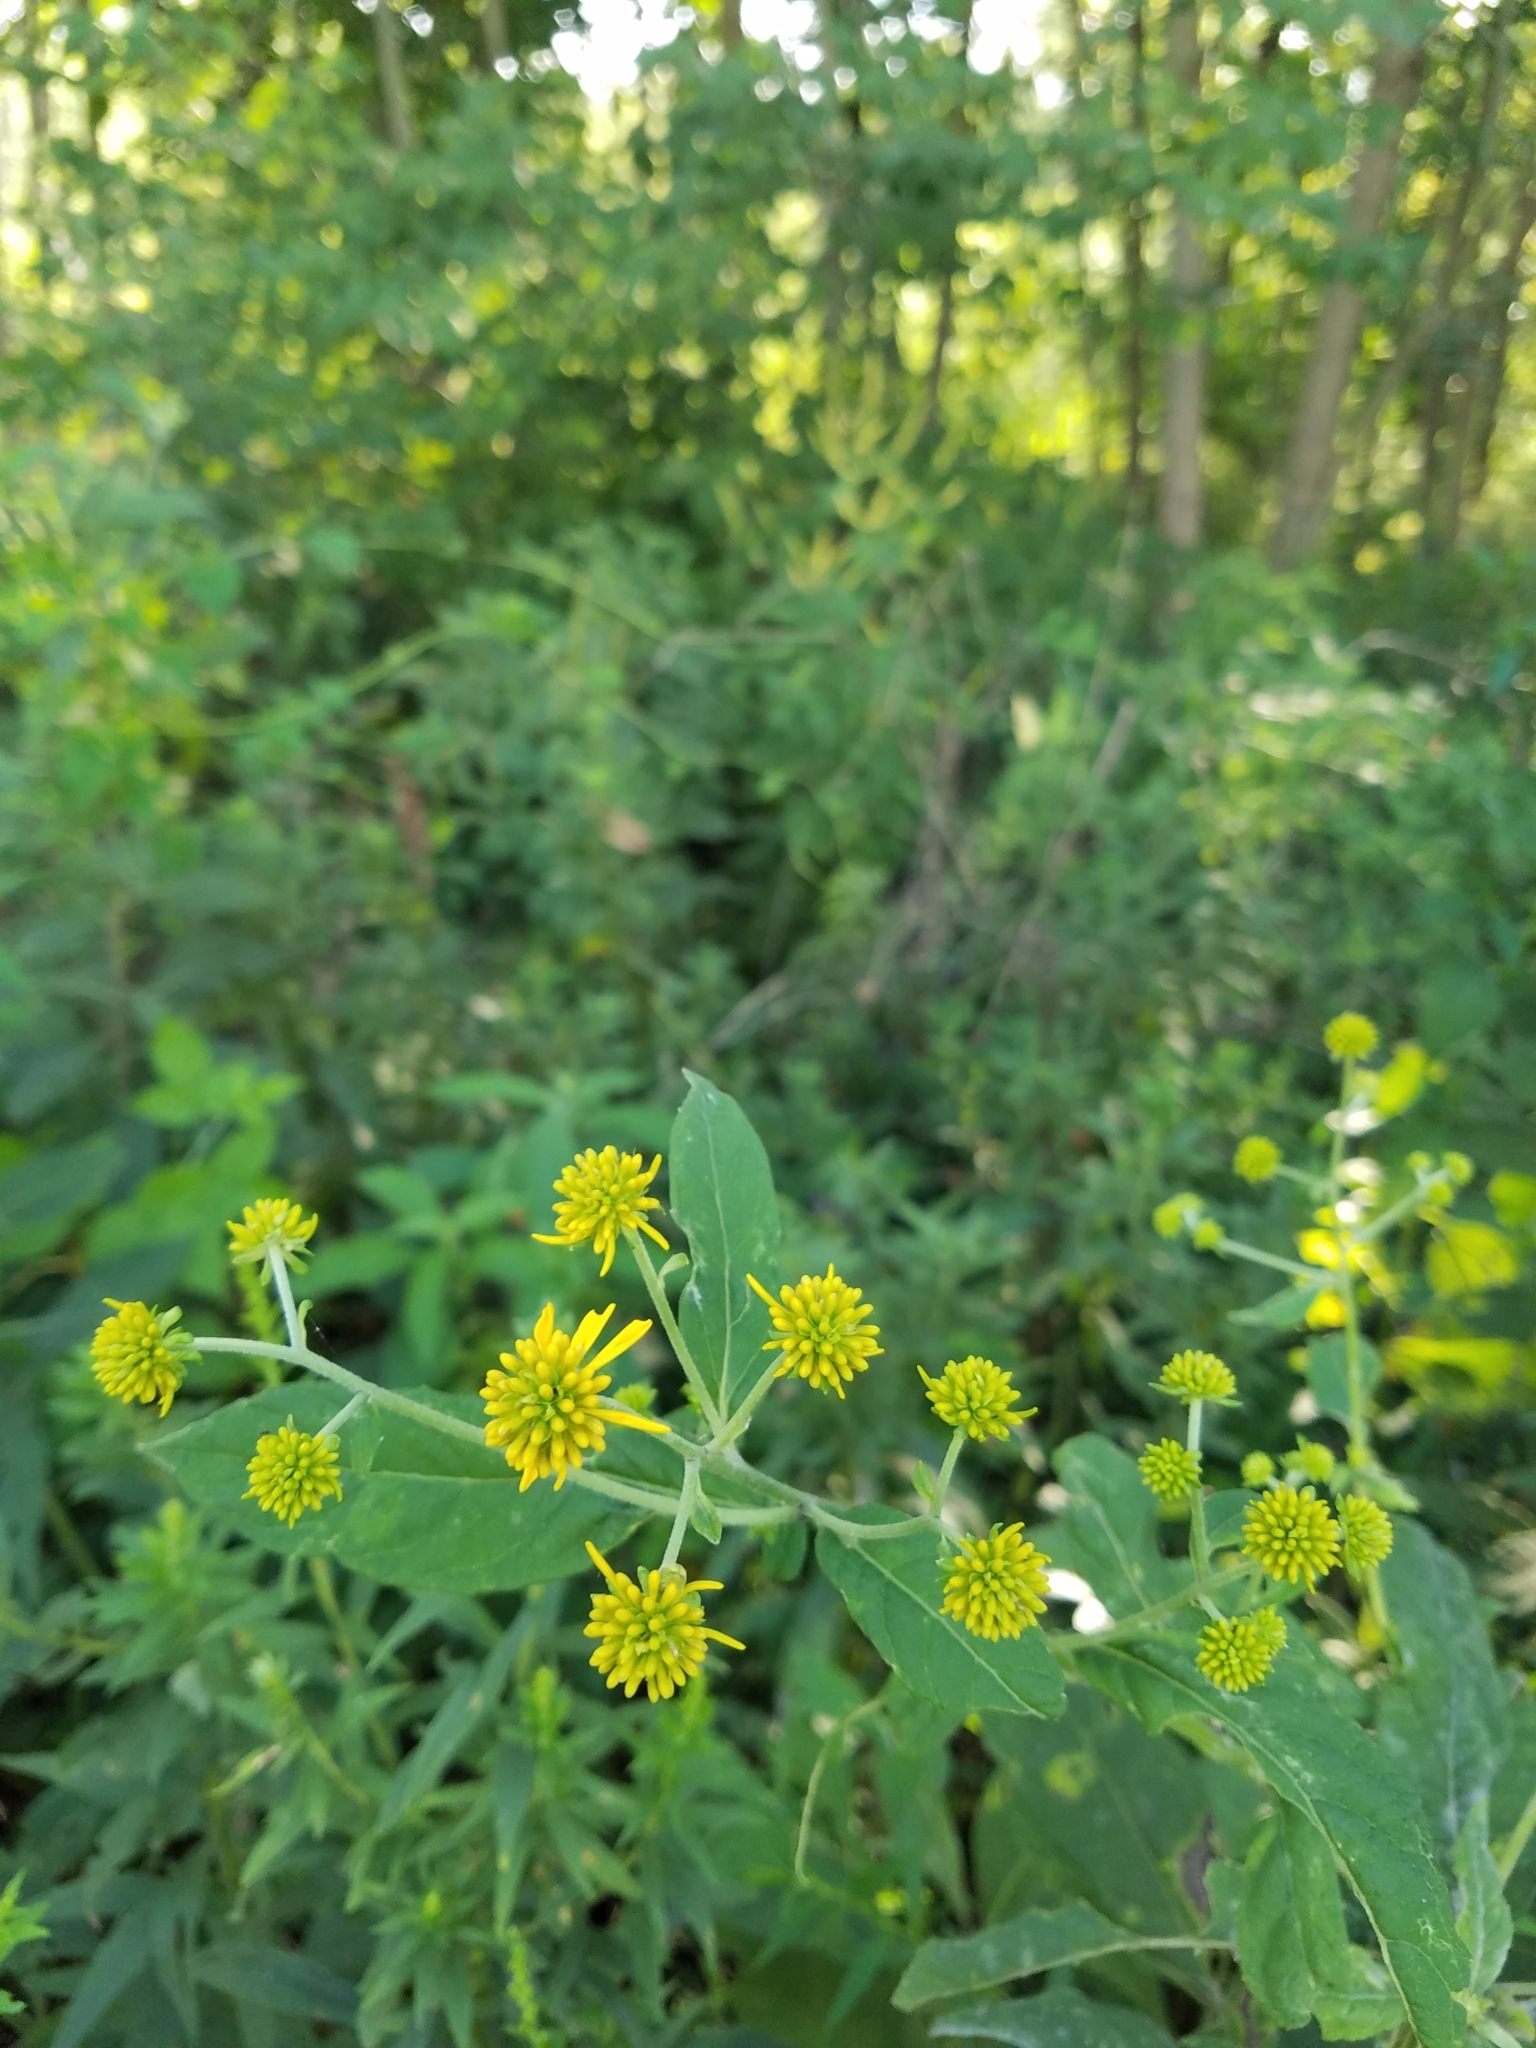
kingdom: Plantae
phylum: Tracheophyta
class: Magnoliopsida
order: Asterales
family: Asteraceae
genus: Verbesina
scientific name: Verbesina alternifolia
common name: Wingstem
